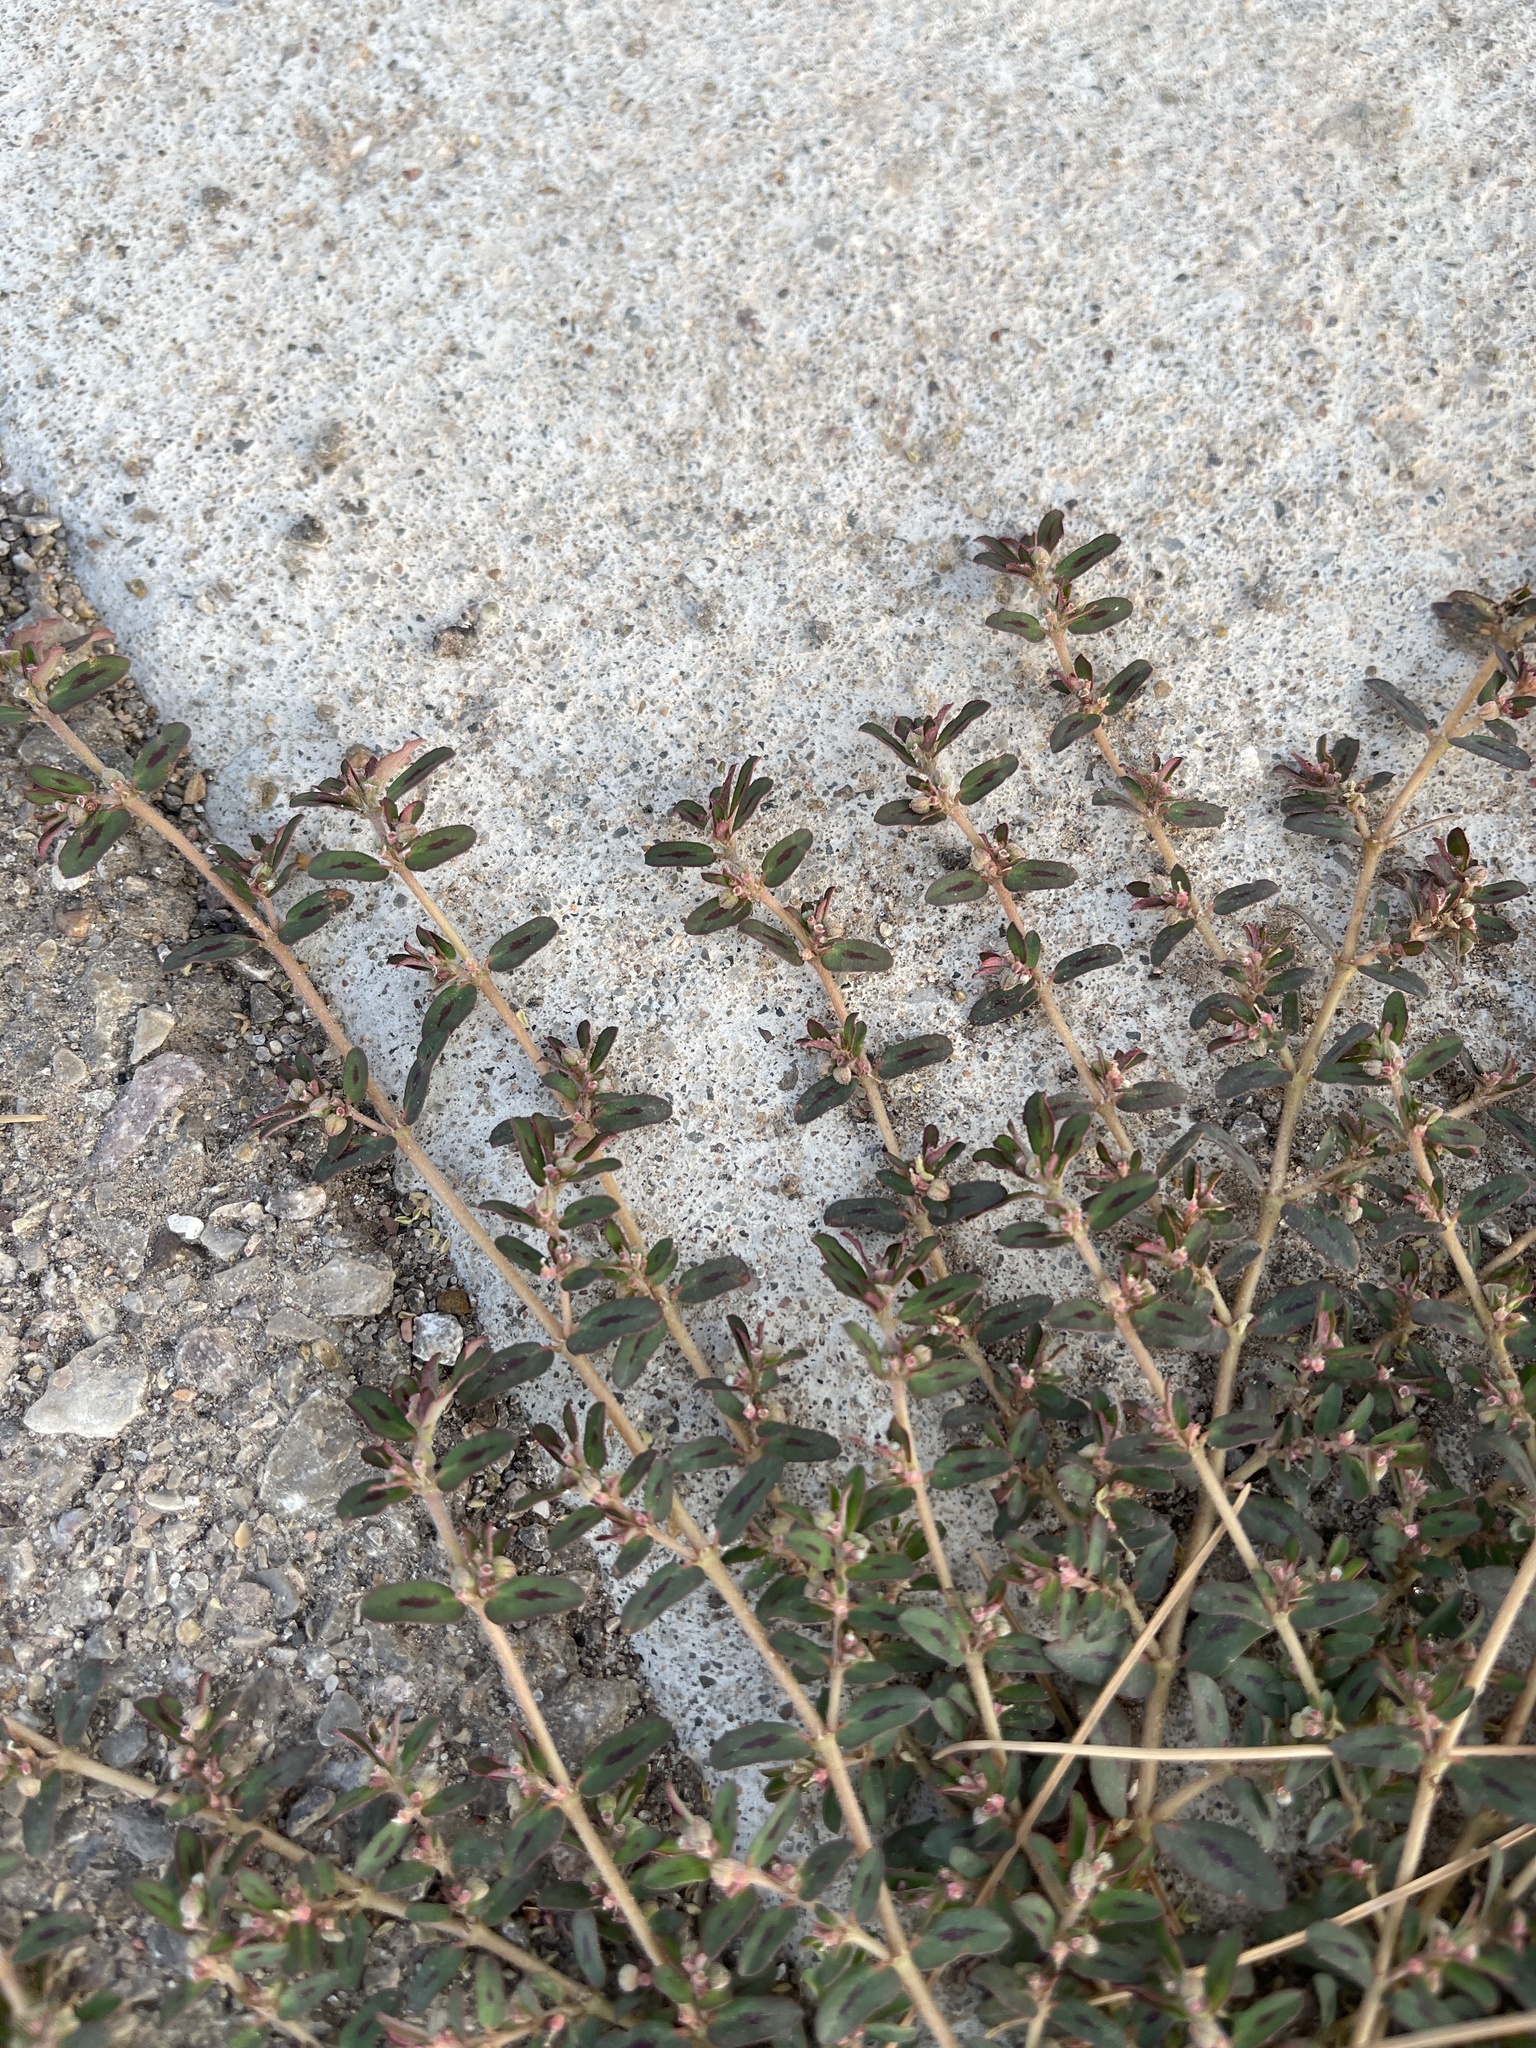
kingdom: Plantae
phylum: Tracheophyta
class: Magnoliopsida
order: Malpighiales
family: Euphorbiaceae
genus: Euphorbia
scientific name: Euphorbia maculata
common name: Spotted spurge
